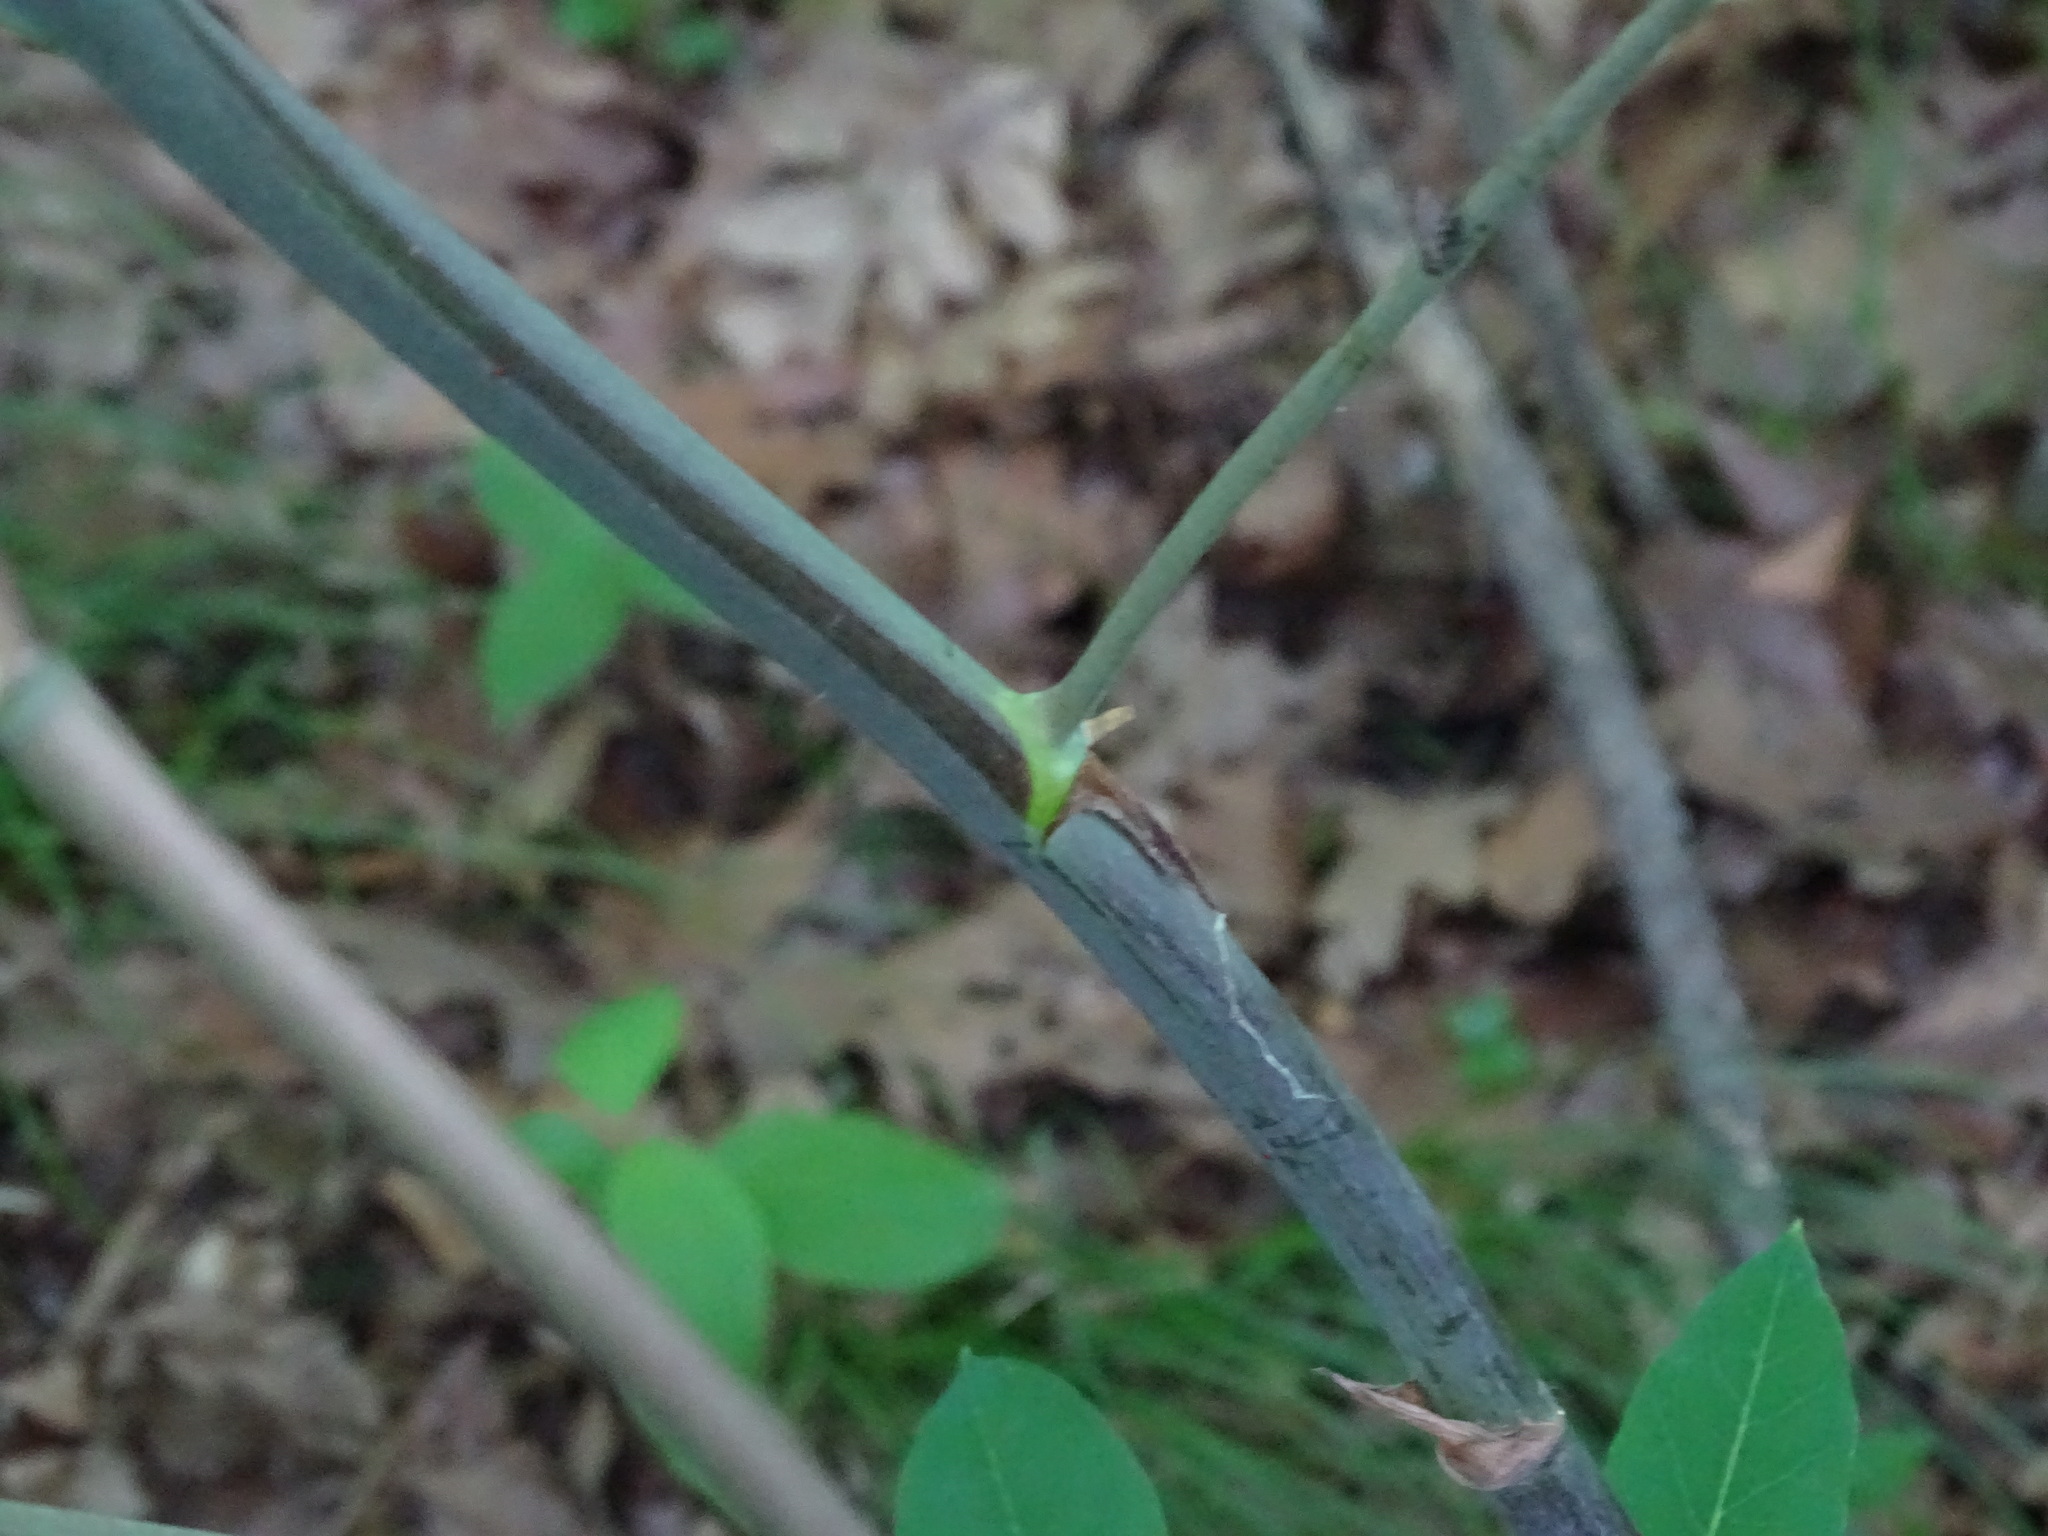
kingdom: Plantae
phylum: Tracheophyta
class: Liliopsida
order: Liliales
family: Smilacaceae
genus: Smilax
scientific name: Smilax herbacea
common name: Jacob's-ladder
